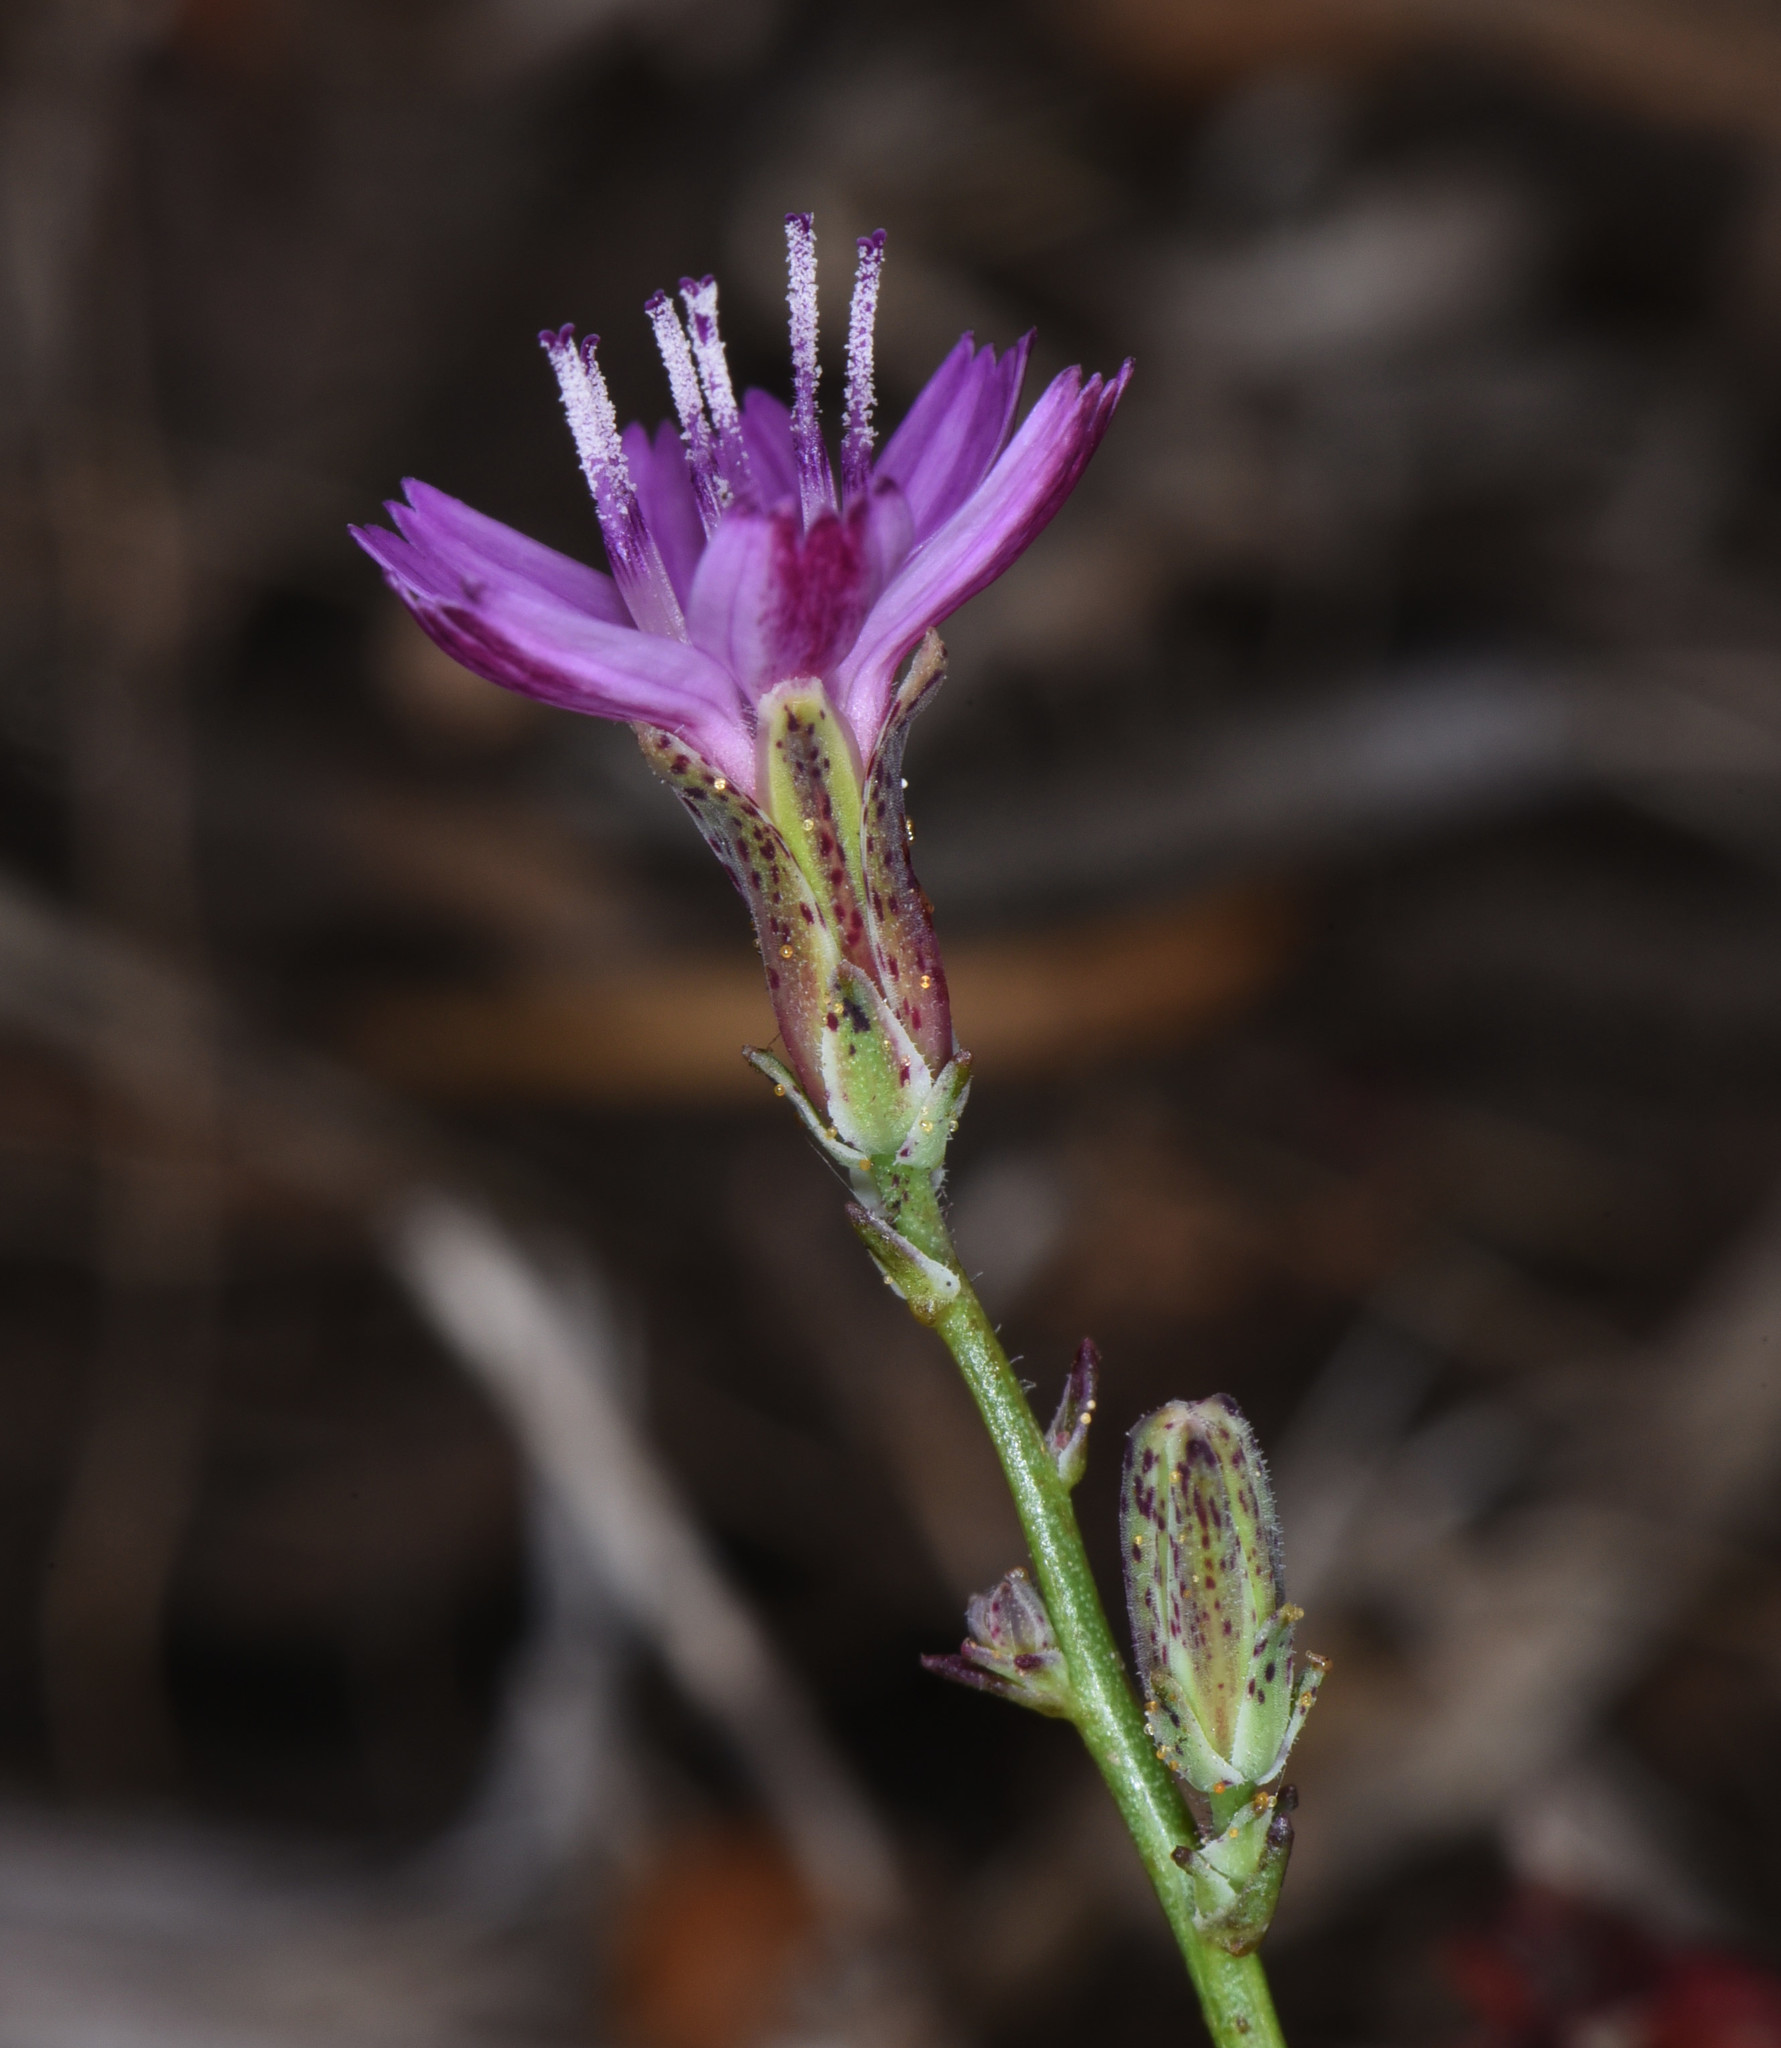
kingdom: Plantae
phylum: Tracheophyta
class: Magnoliopsida
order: Asterales
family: Asteraceae
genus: Stephanomeria
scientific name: Stephanomeria elata
